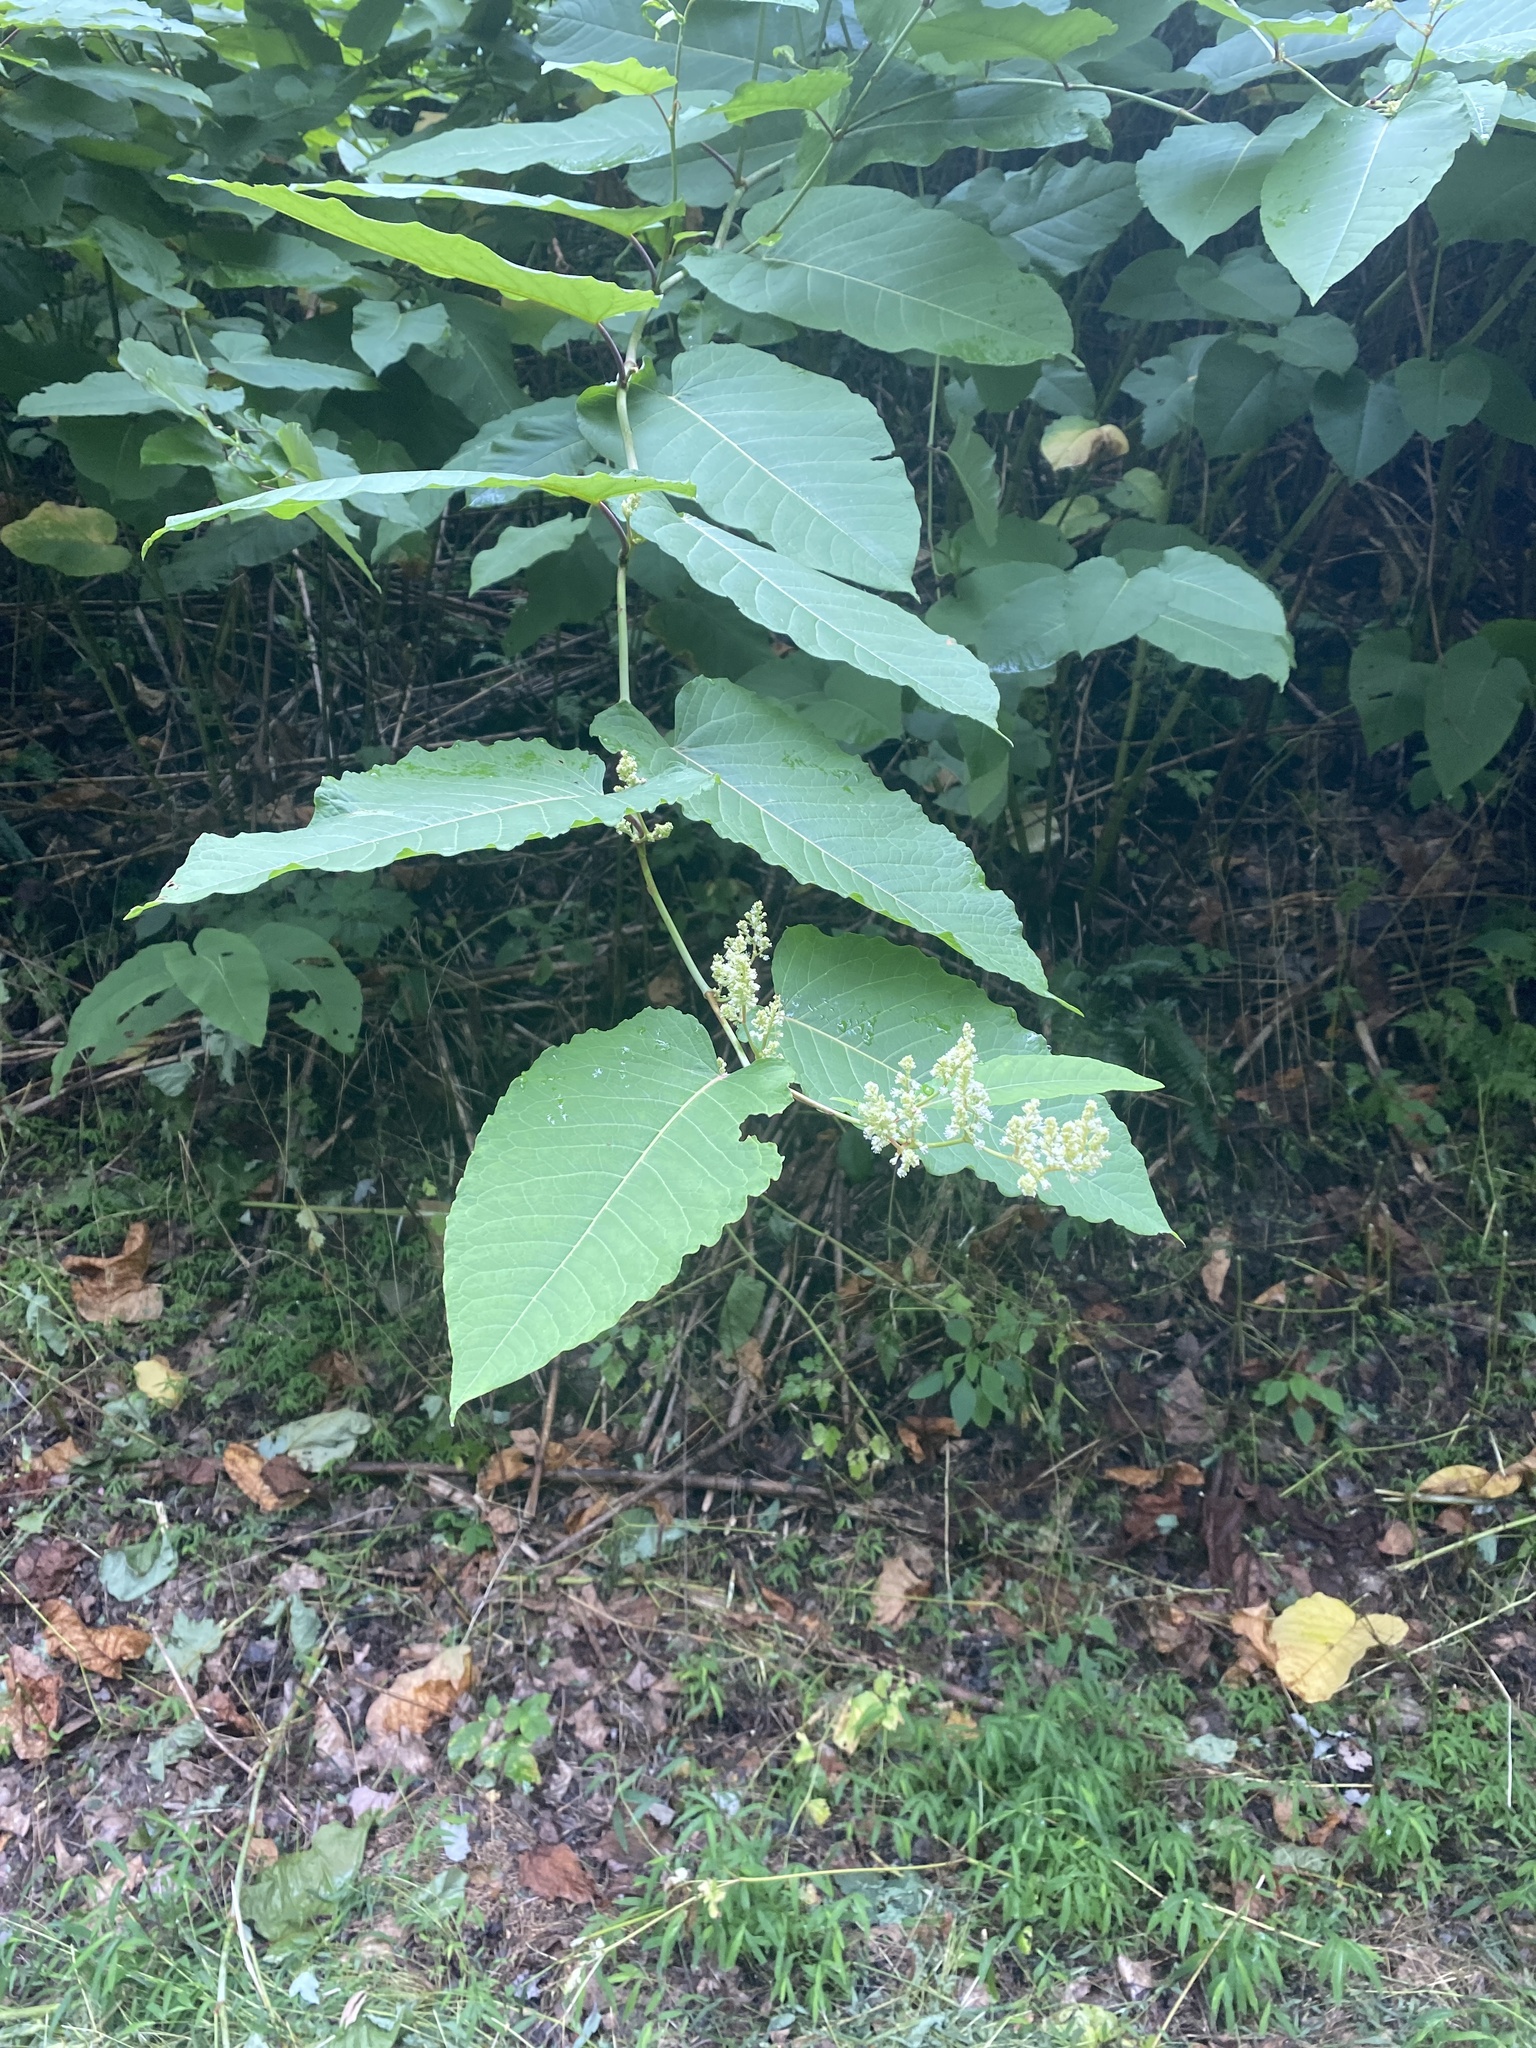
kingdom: Plantae
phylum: Tracheophyta
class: Magnoliopsida
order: Caryophyllales
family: Polygonaceae
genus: Reynoutria
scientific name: Reynoutria sachalinensis
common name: Giant knotweed
